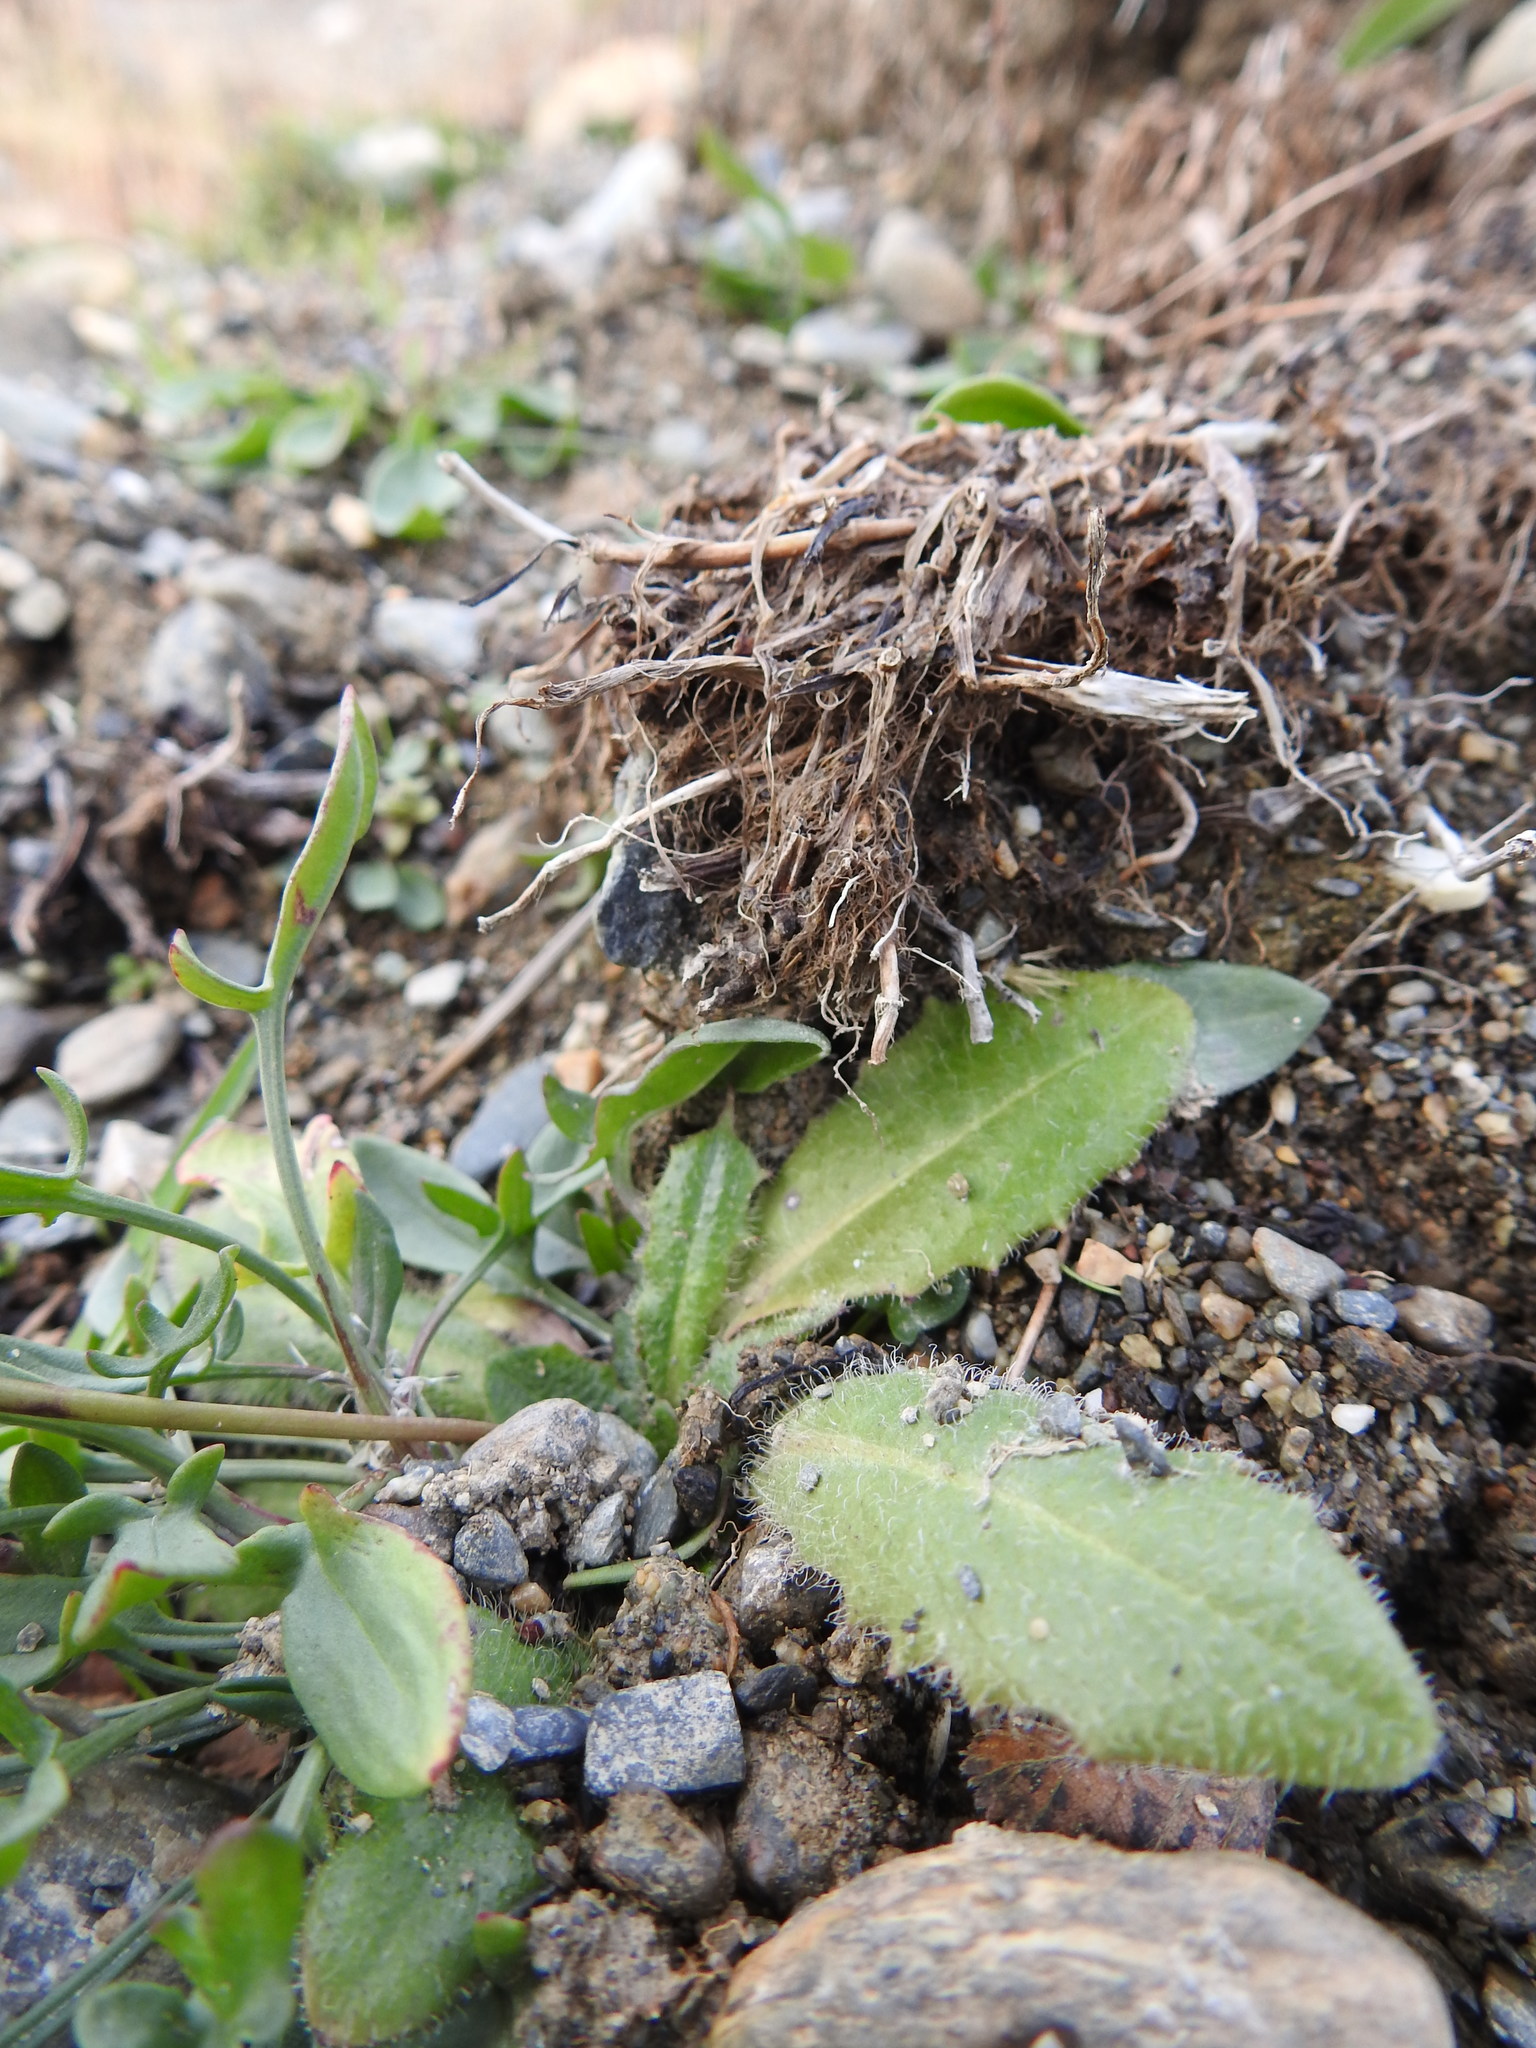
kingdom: Plantae
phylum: Tracheophyta
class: Magnoliopsida
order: Asterales
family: Asteraceae
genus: Hypochaeris
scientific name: Hypochaeris radicata
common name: Flatweed
